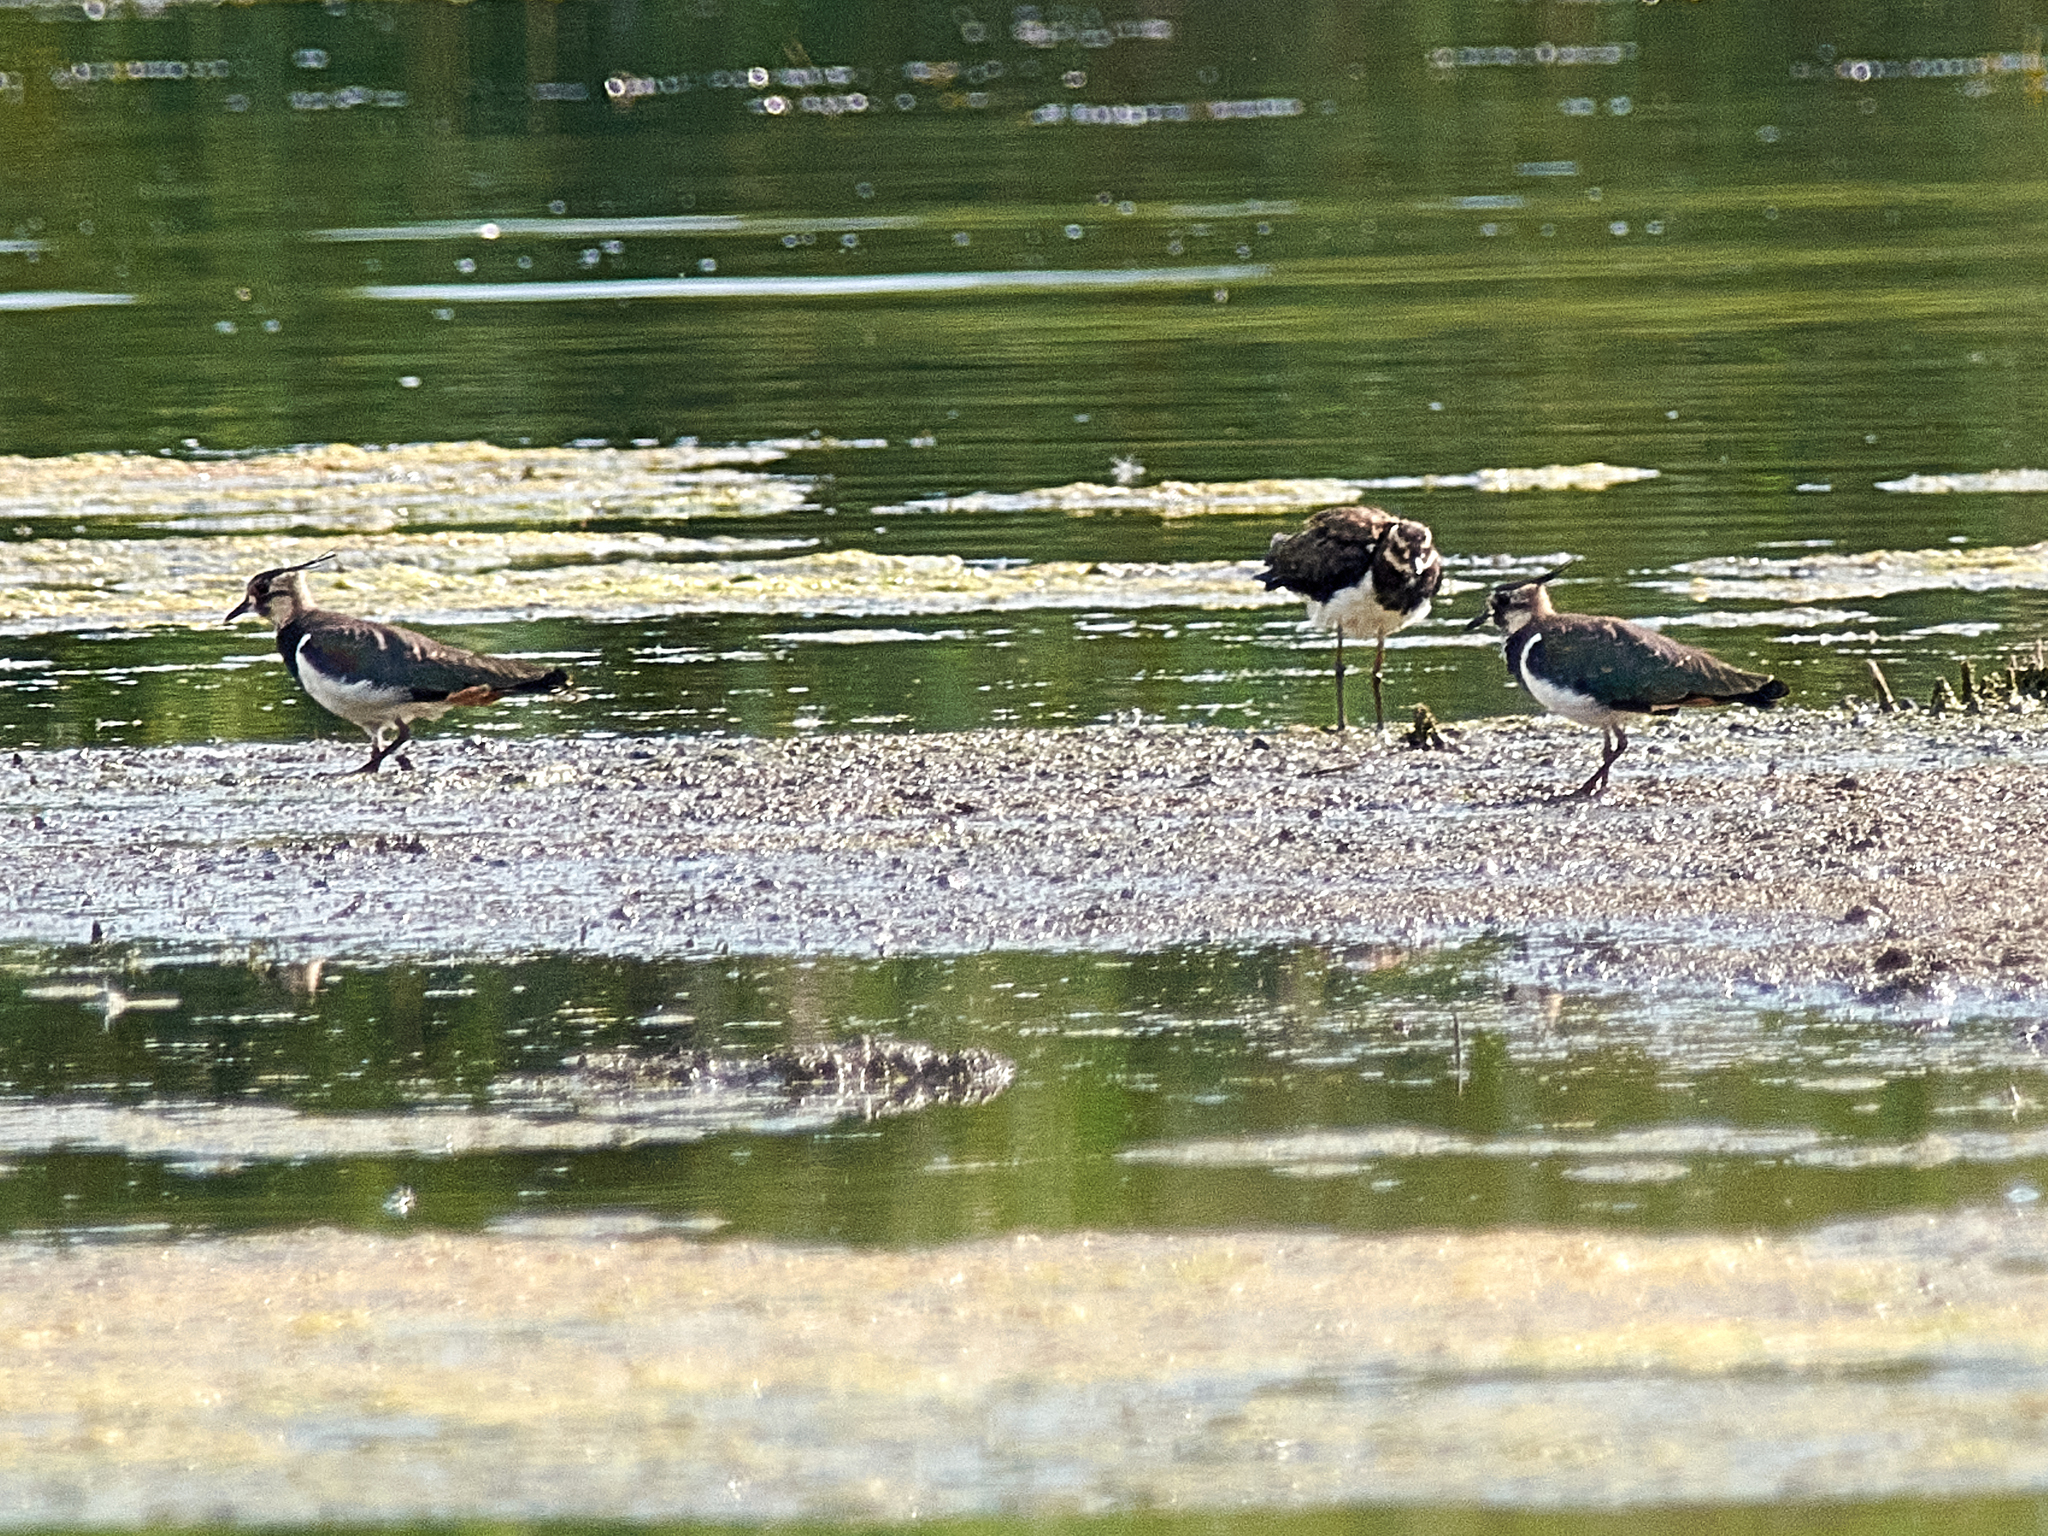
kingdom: Animalia
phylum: Chordata
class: Aves
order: Charadriiformes
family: Charadriidae
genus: Vanellus
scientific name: Vanellus vanellus
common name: Northern lapwing
